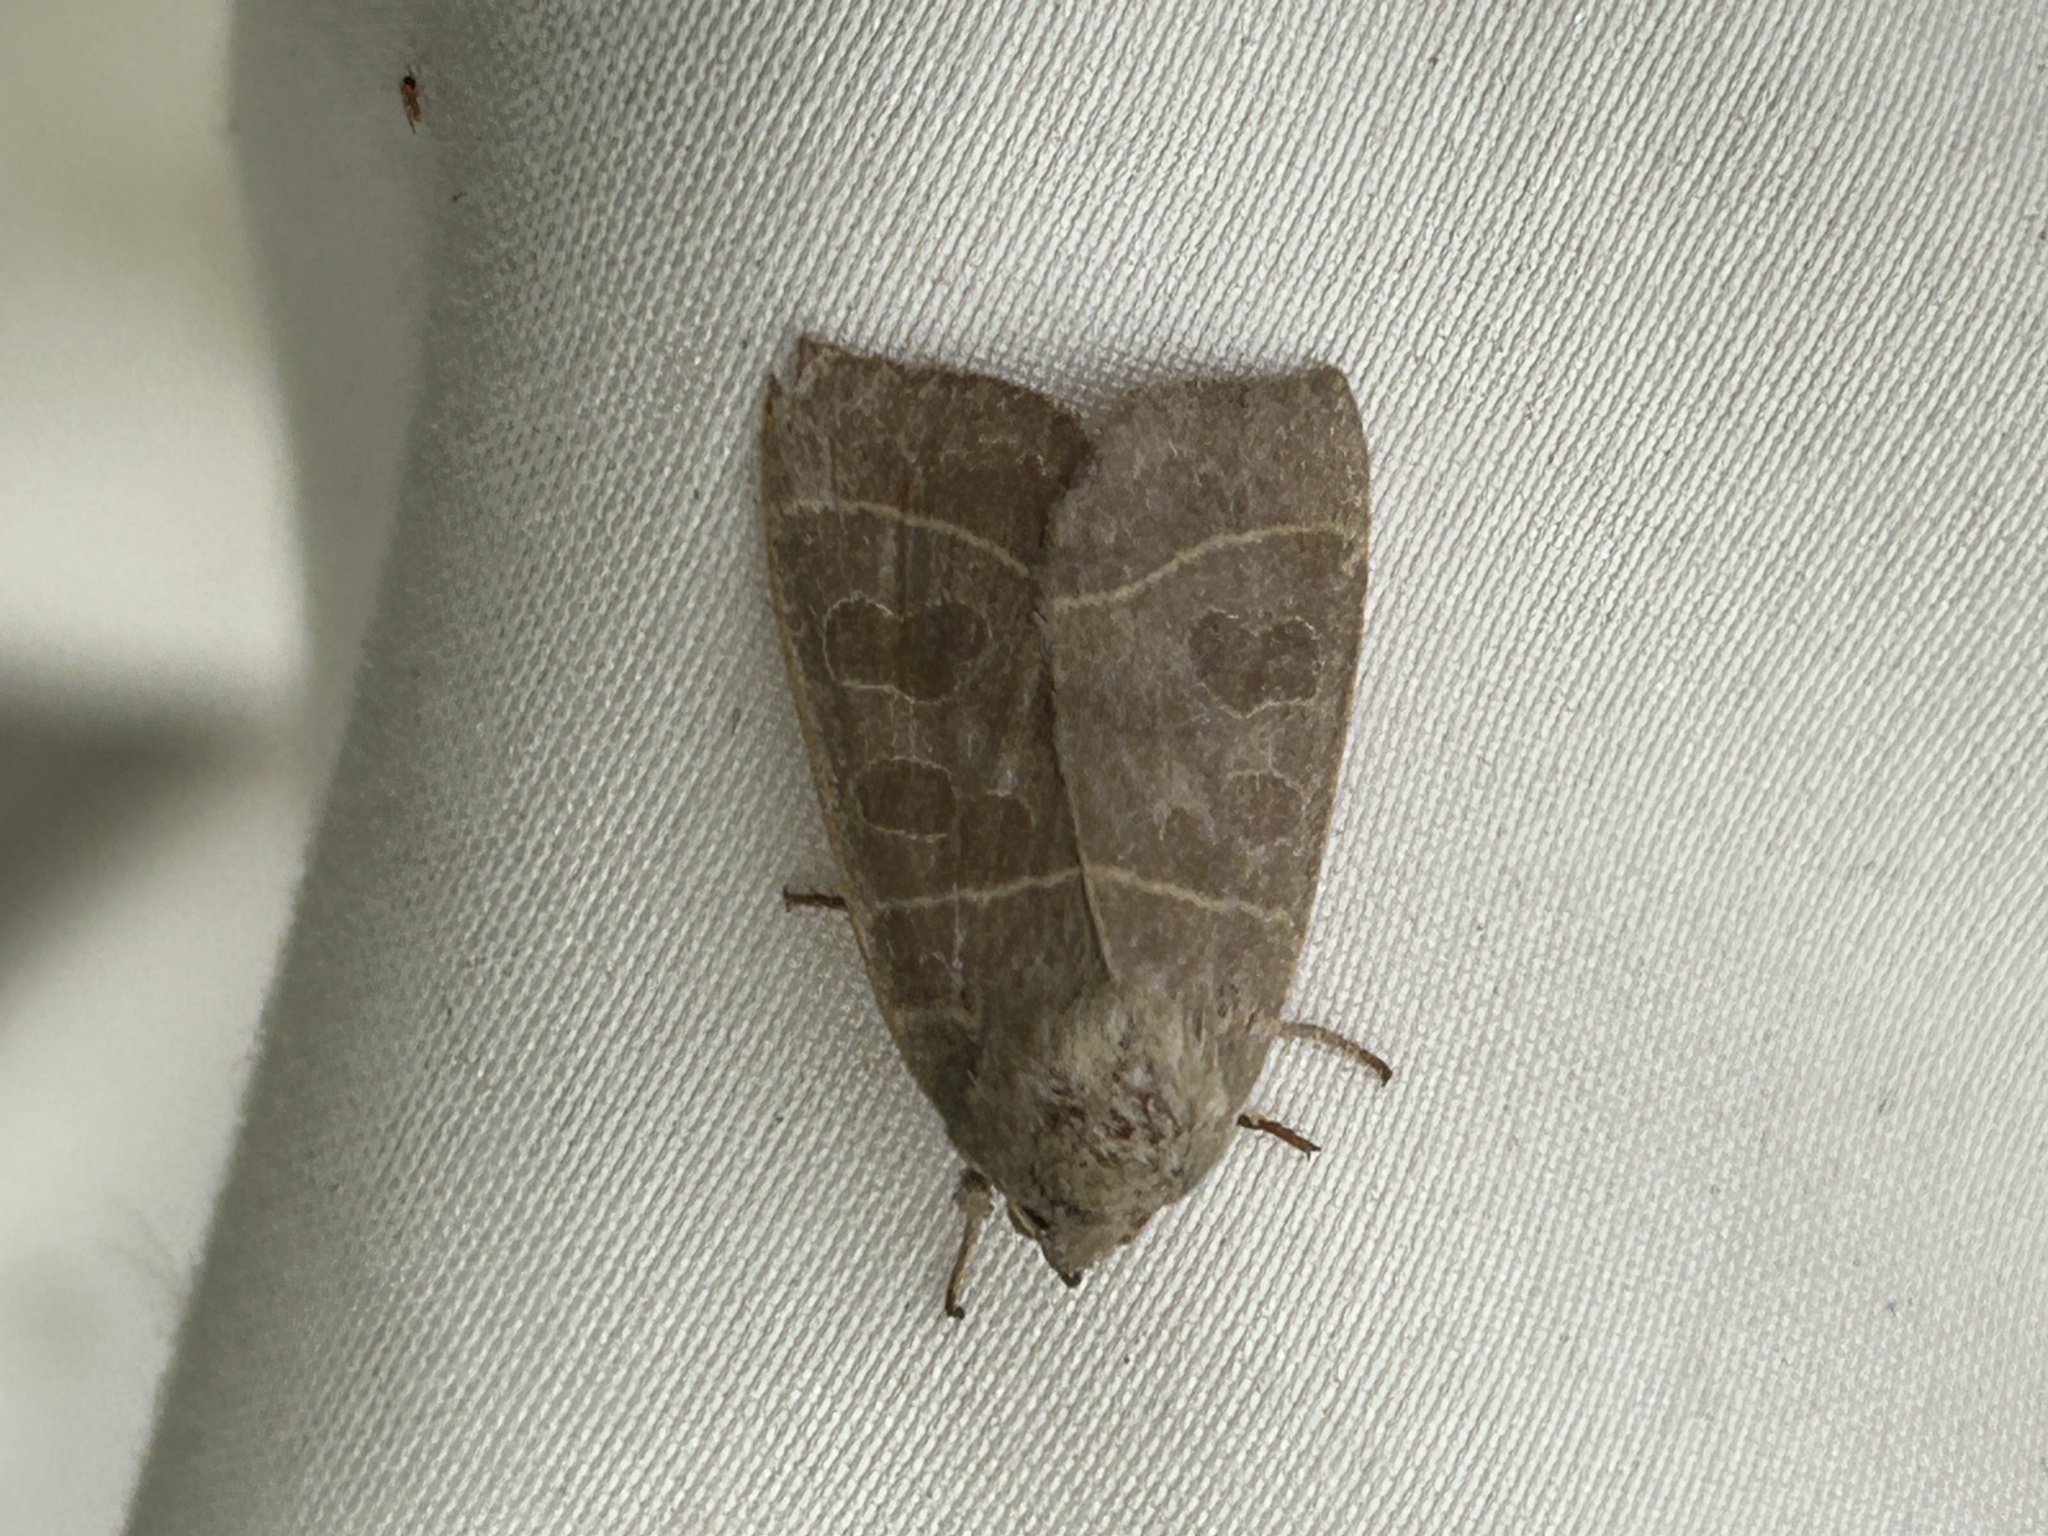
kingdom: Animalia
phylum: Arthropoda
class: Insecta
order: Lepidoptera
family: Noctuidae
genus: Ipimorpha
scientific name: Ipimorpha pleonectusa
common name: Even-lined sallow
